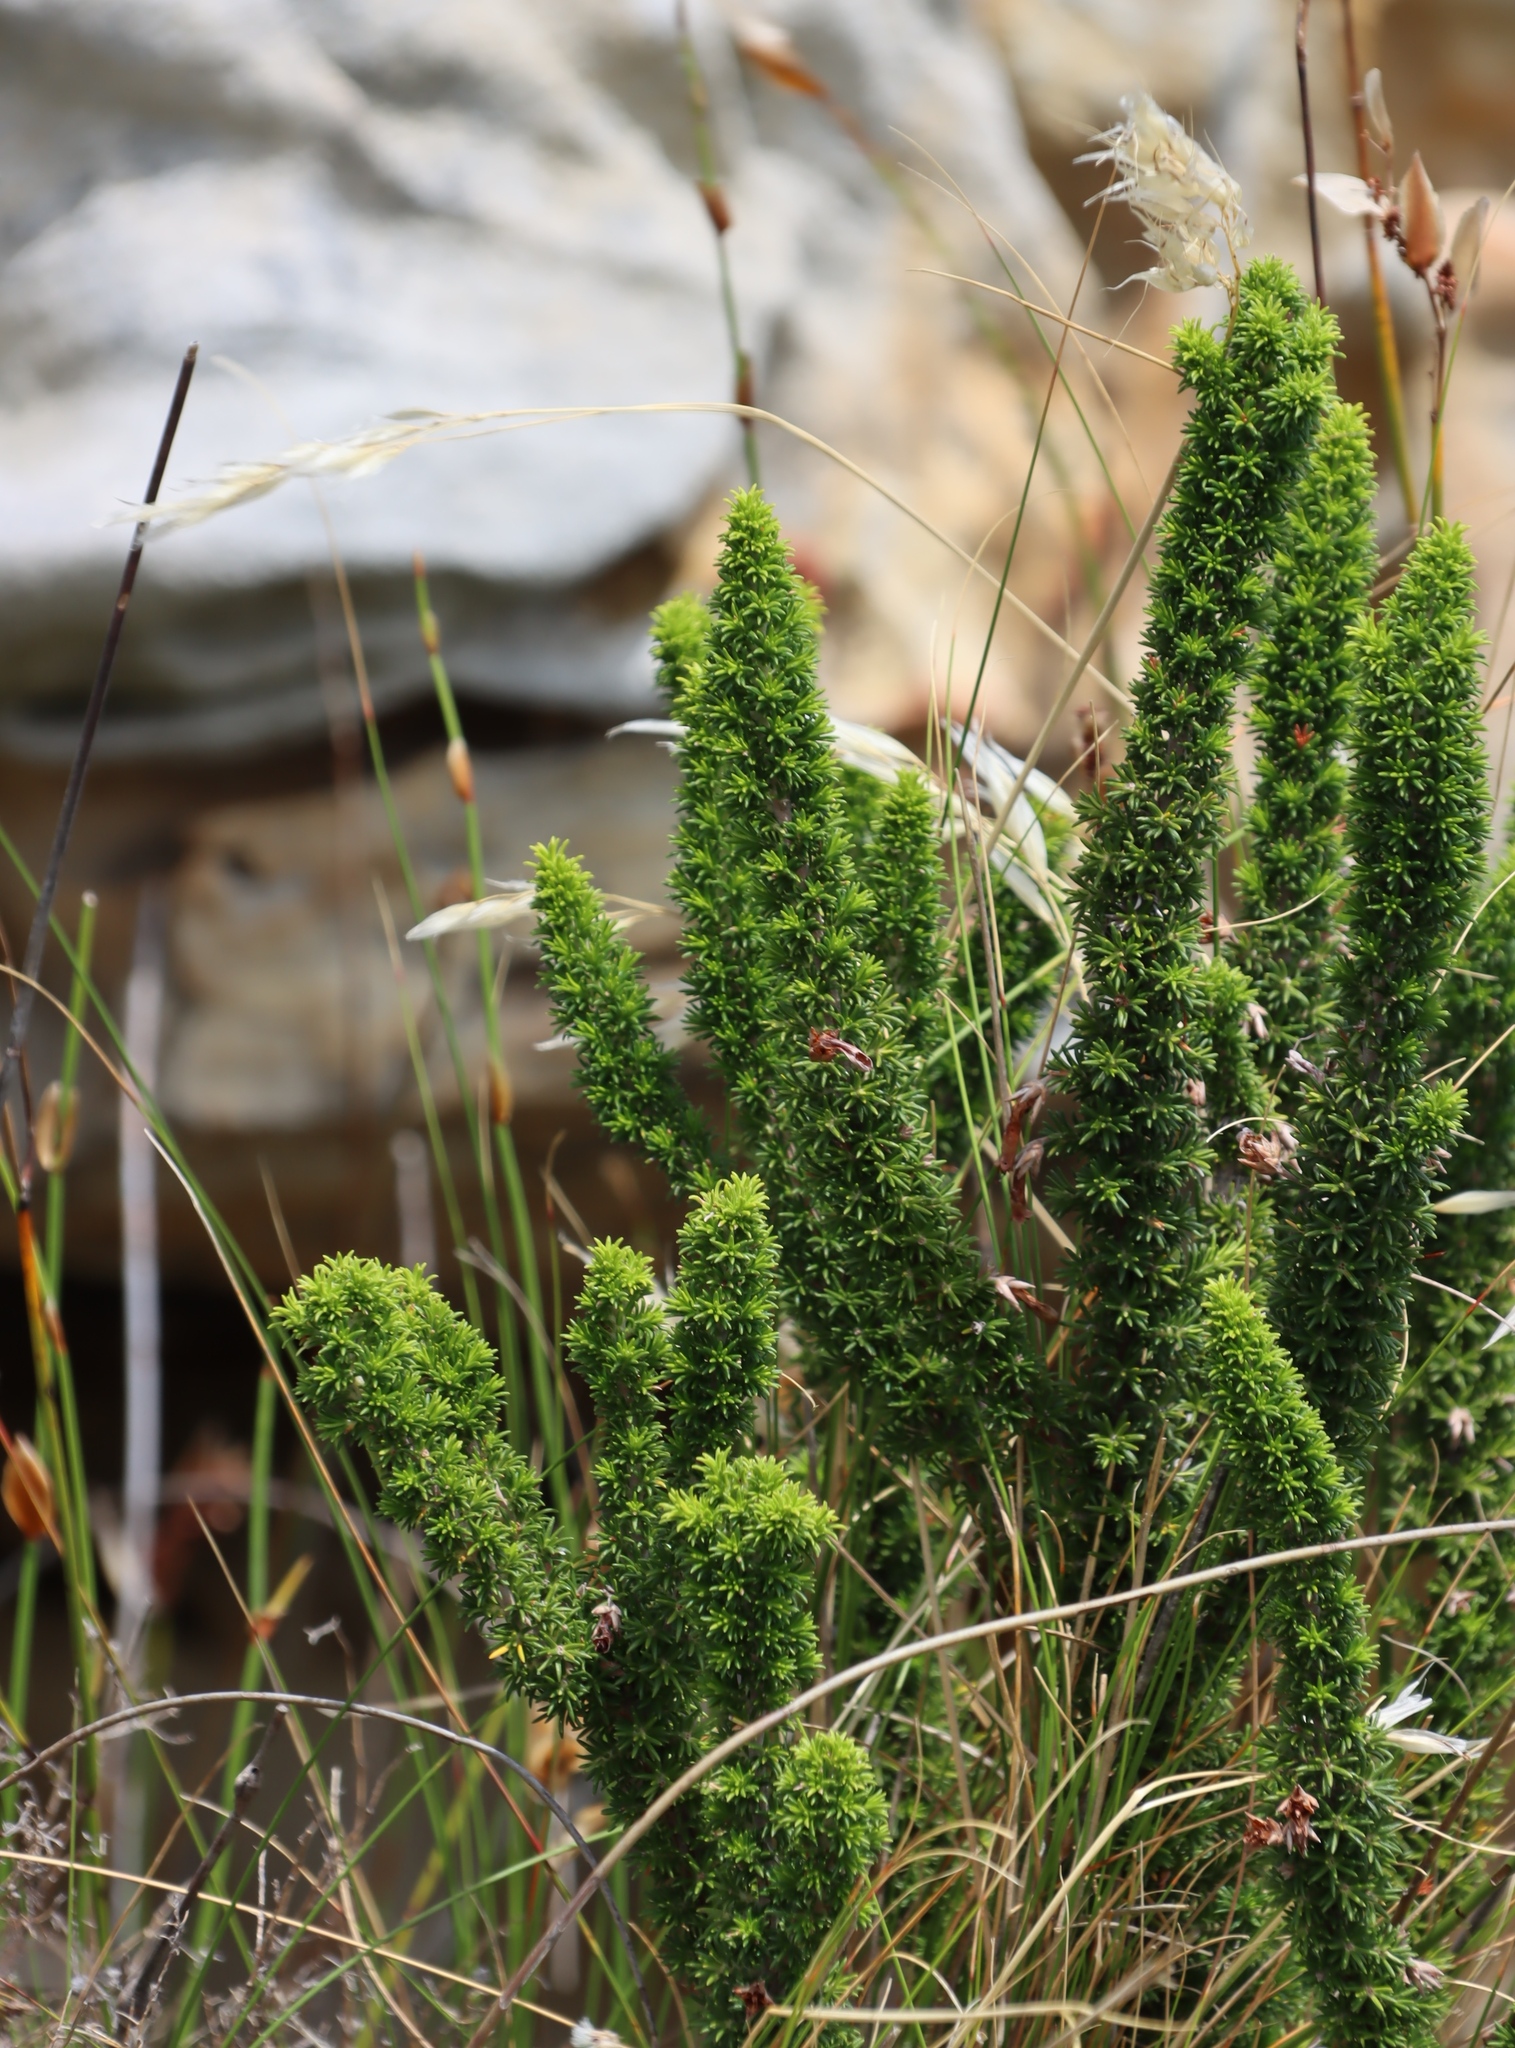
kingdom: Plantae
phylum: Tracheophyta
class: Magnoliopsida
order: Ericales
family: Ericaceae
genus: Erica
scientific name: Erica coccinea
